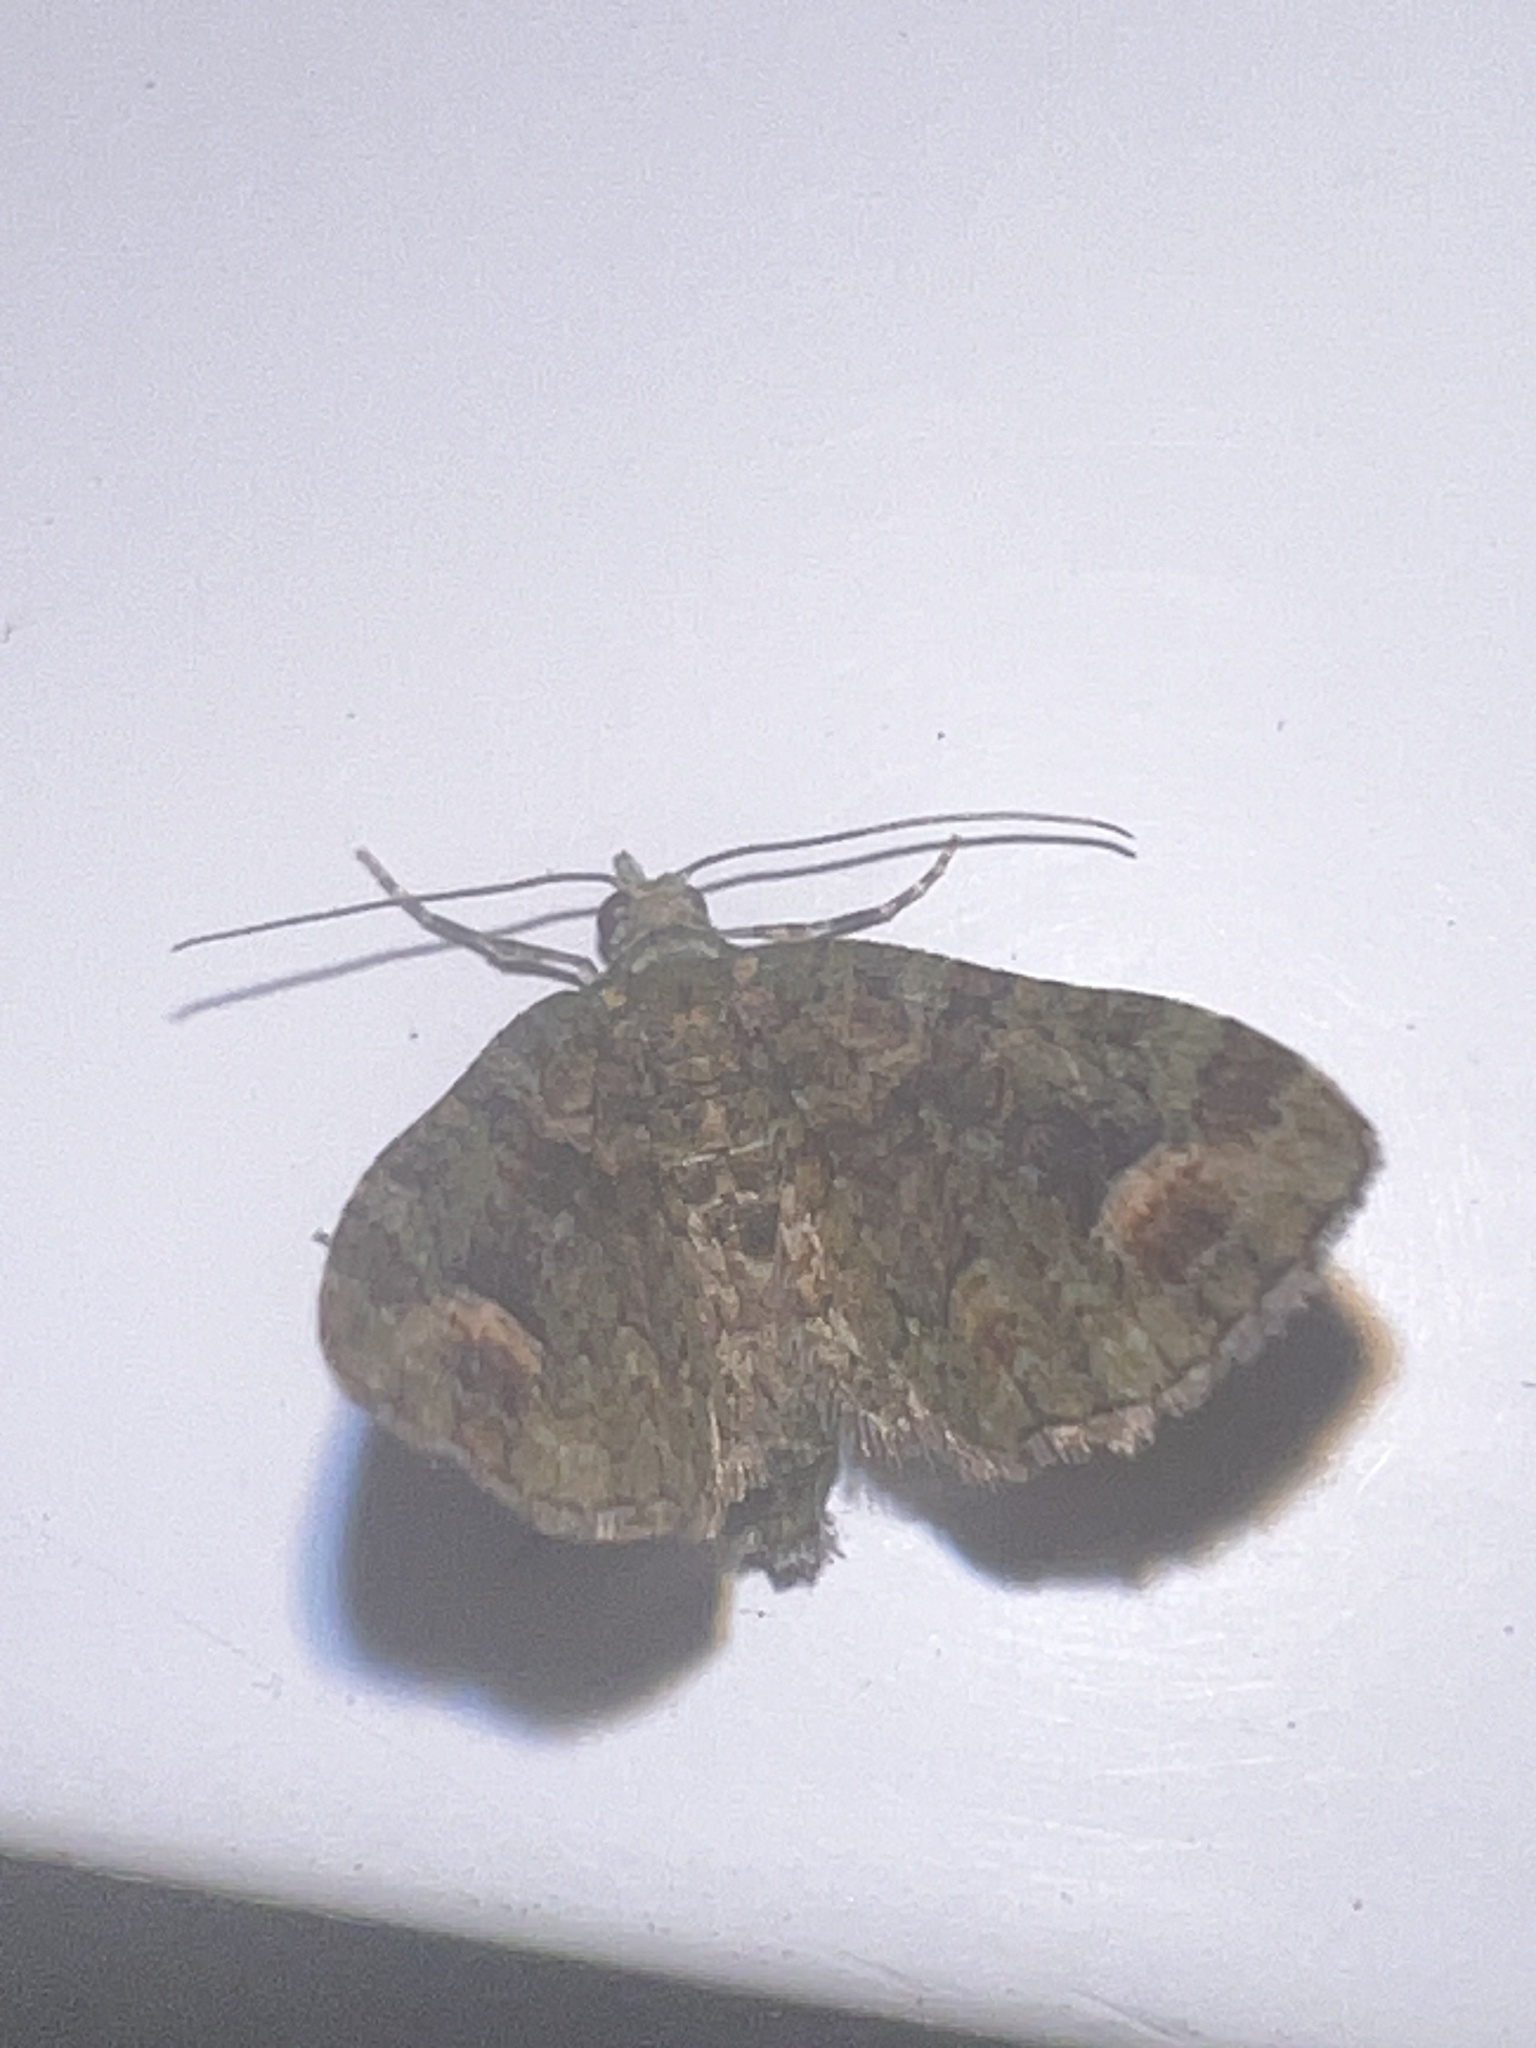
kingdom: Animalia
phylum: Arthropoda
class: Insecta
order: Lepidoptera
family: Geometridae
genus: Idaea
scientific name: Idaea mutanda
